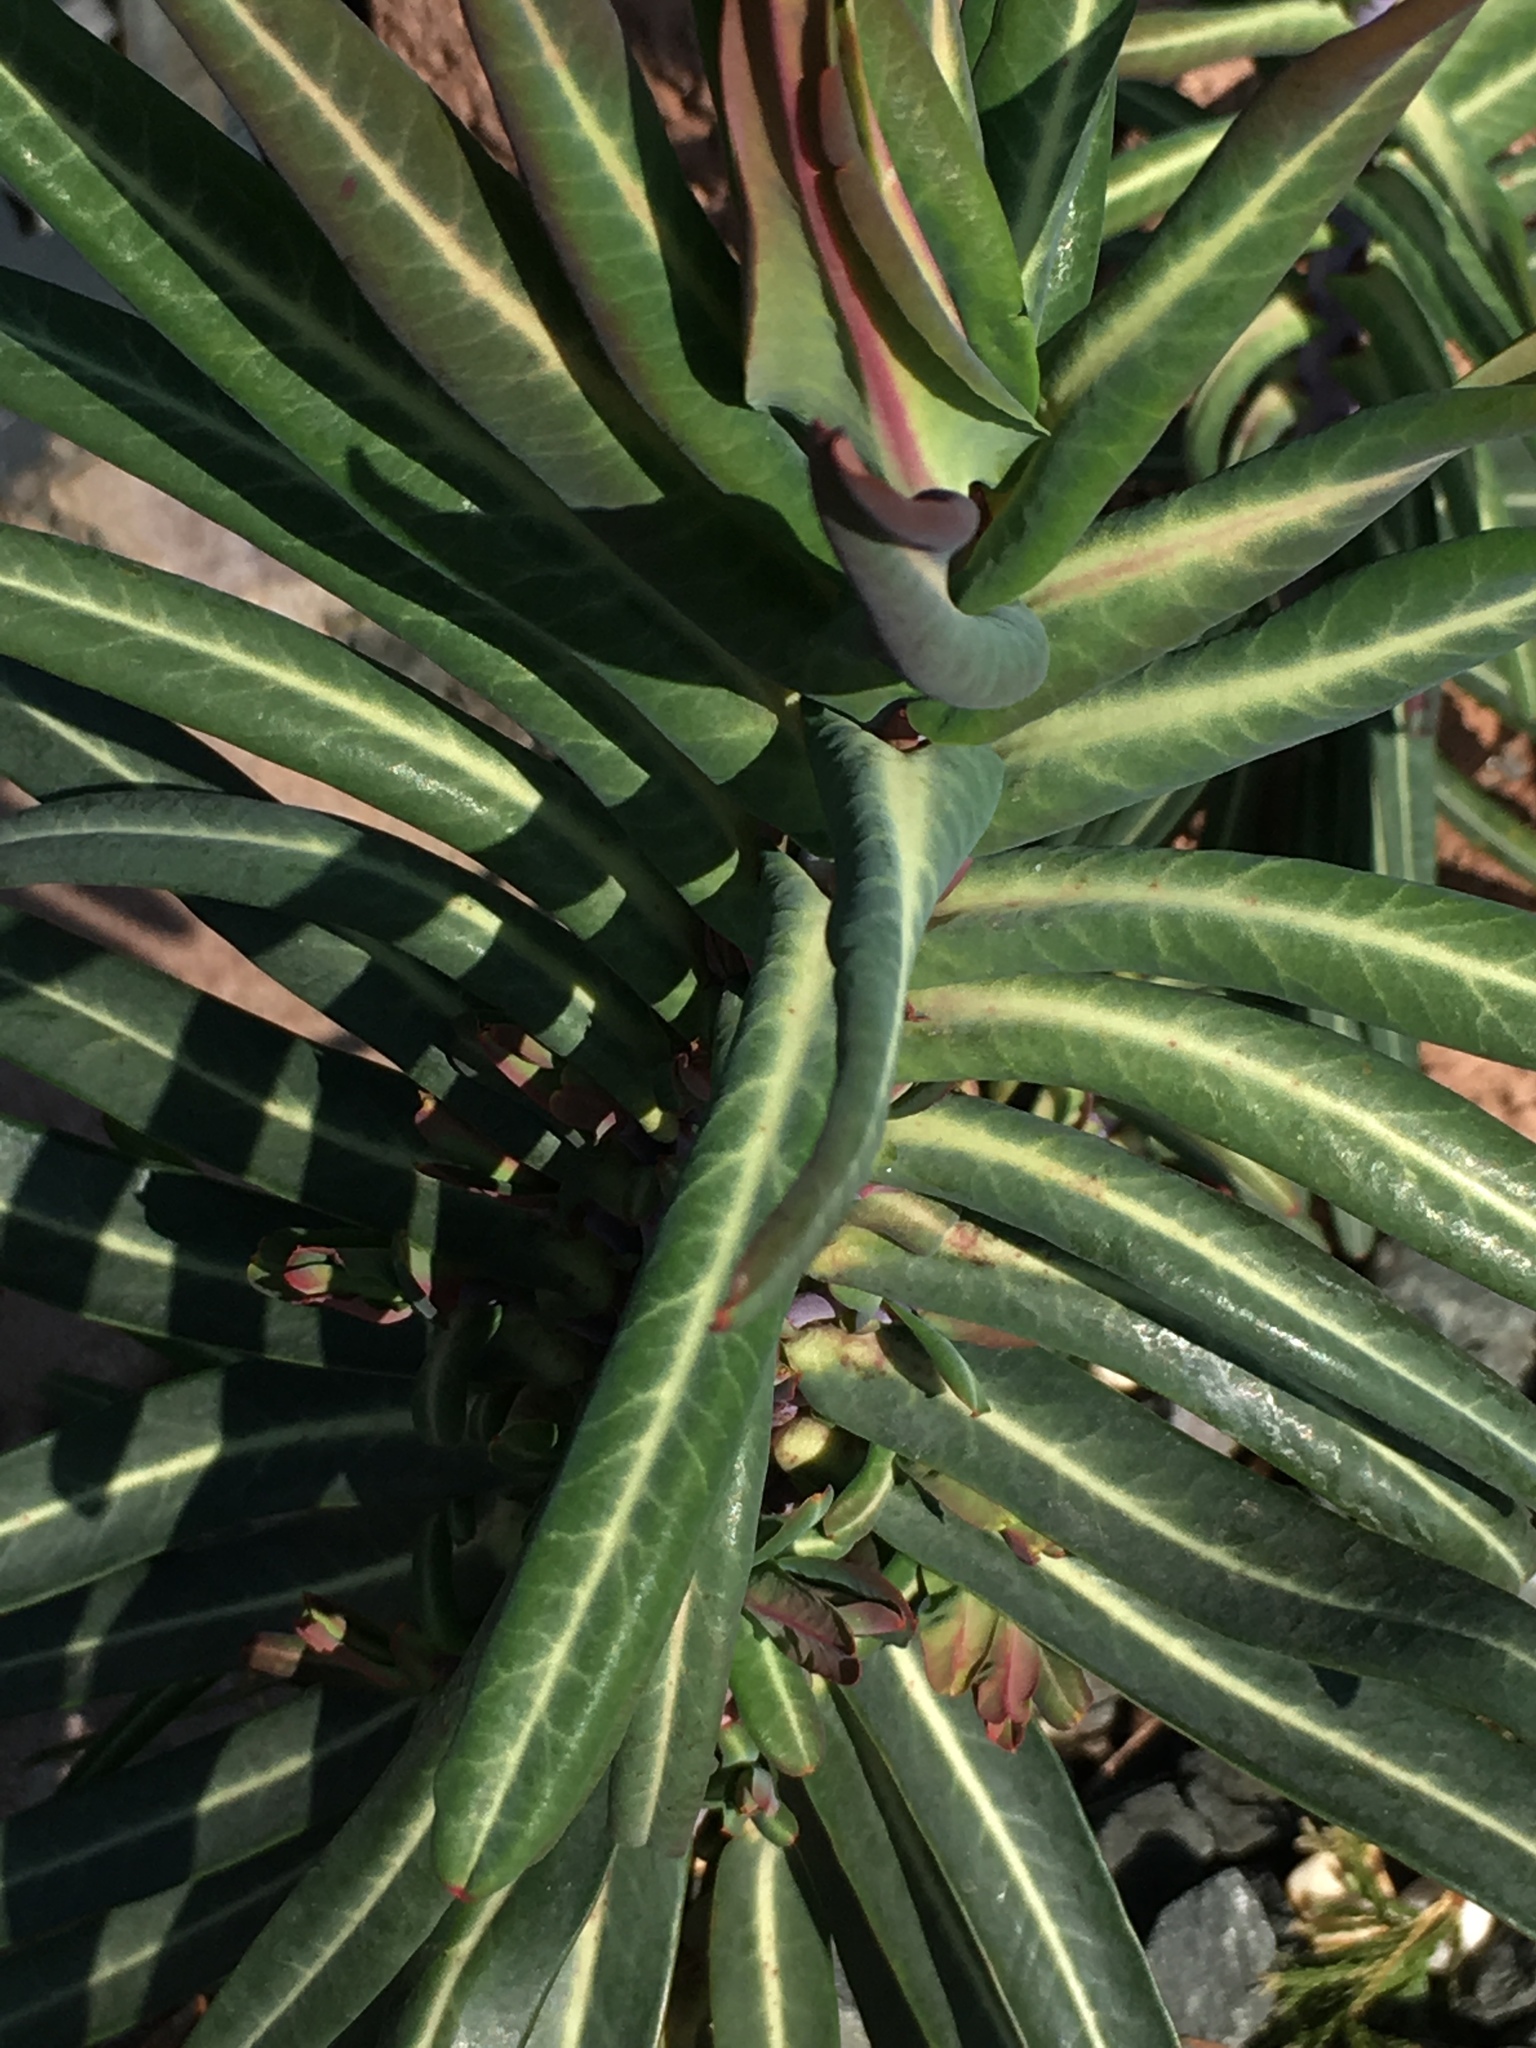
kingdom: Plantae
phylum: Tracheophyta
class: Magnoliopsida
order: Malpighiales
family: Euphorbiaceae
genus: Euphorbia
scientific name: Euphorbia lathyris
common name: Caper spurge
